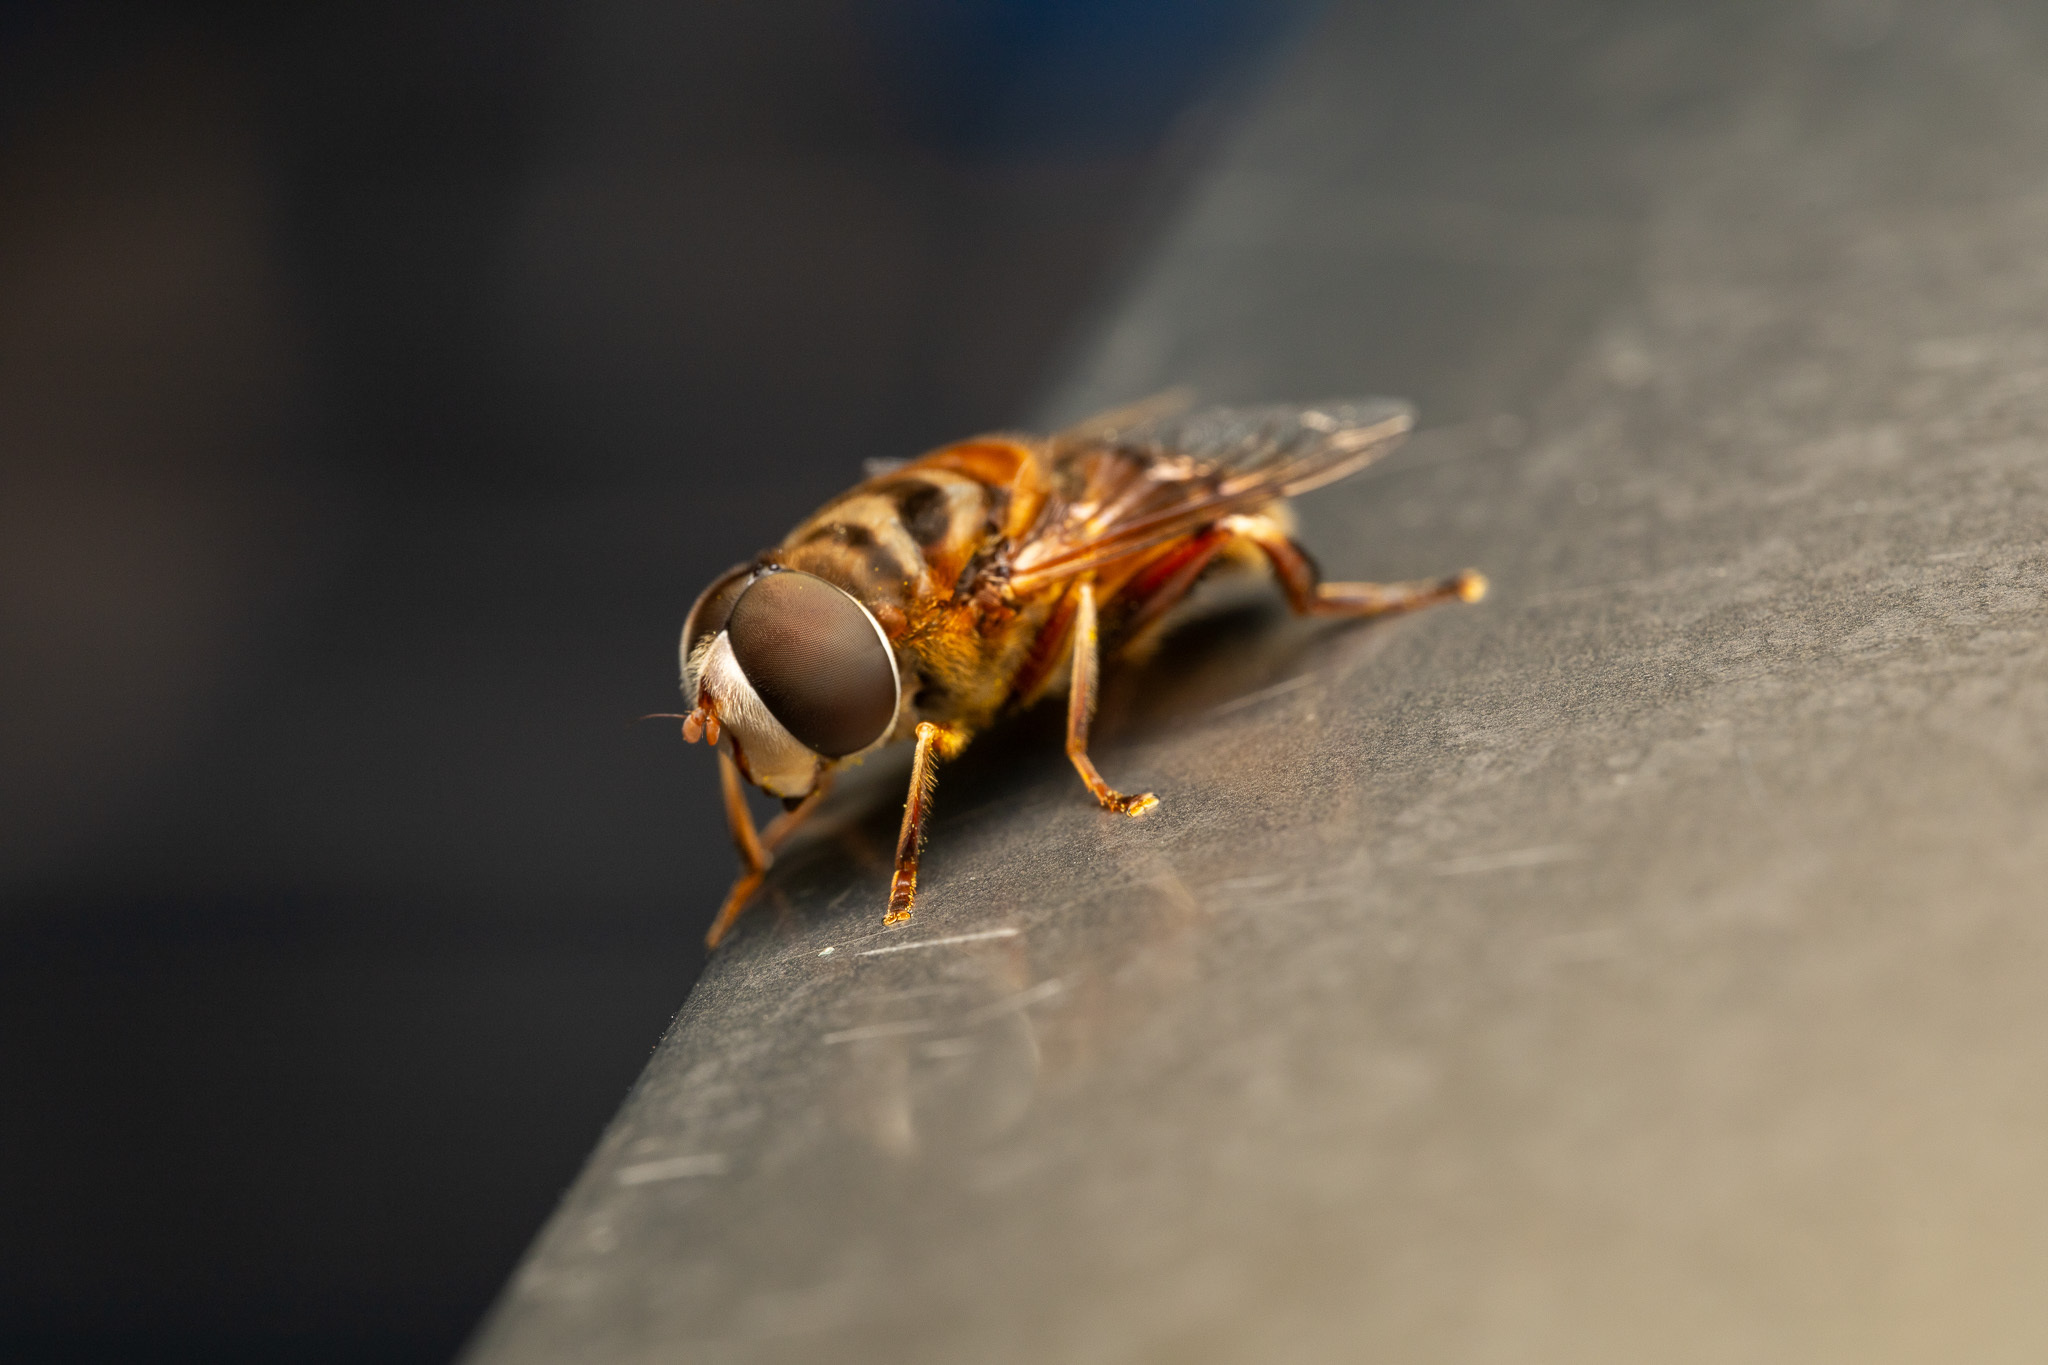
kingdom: Animalia
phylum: Arthropoda
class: Insecta
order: Diptera
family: Syrphidae
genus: Palpada
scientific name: Palpada vinetorum
